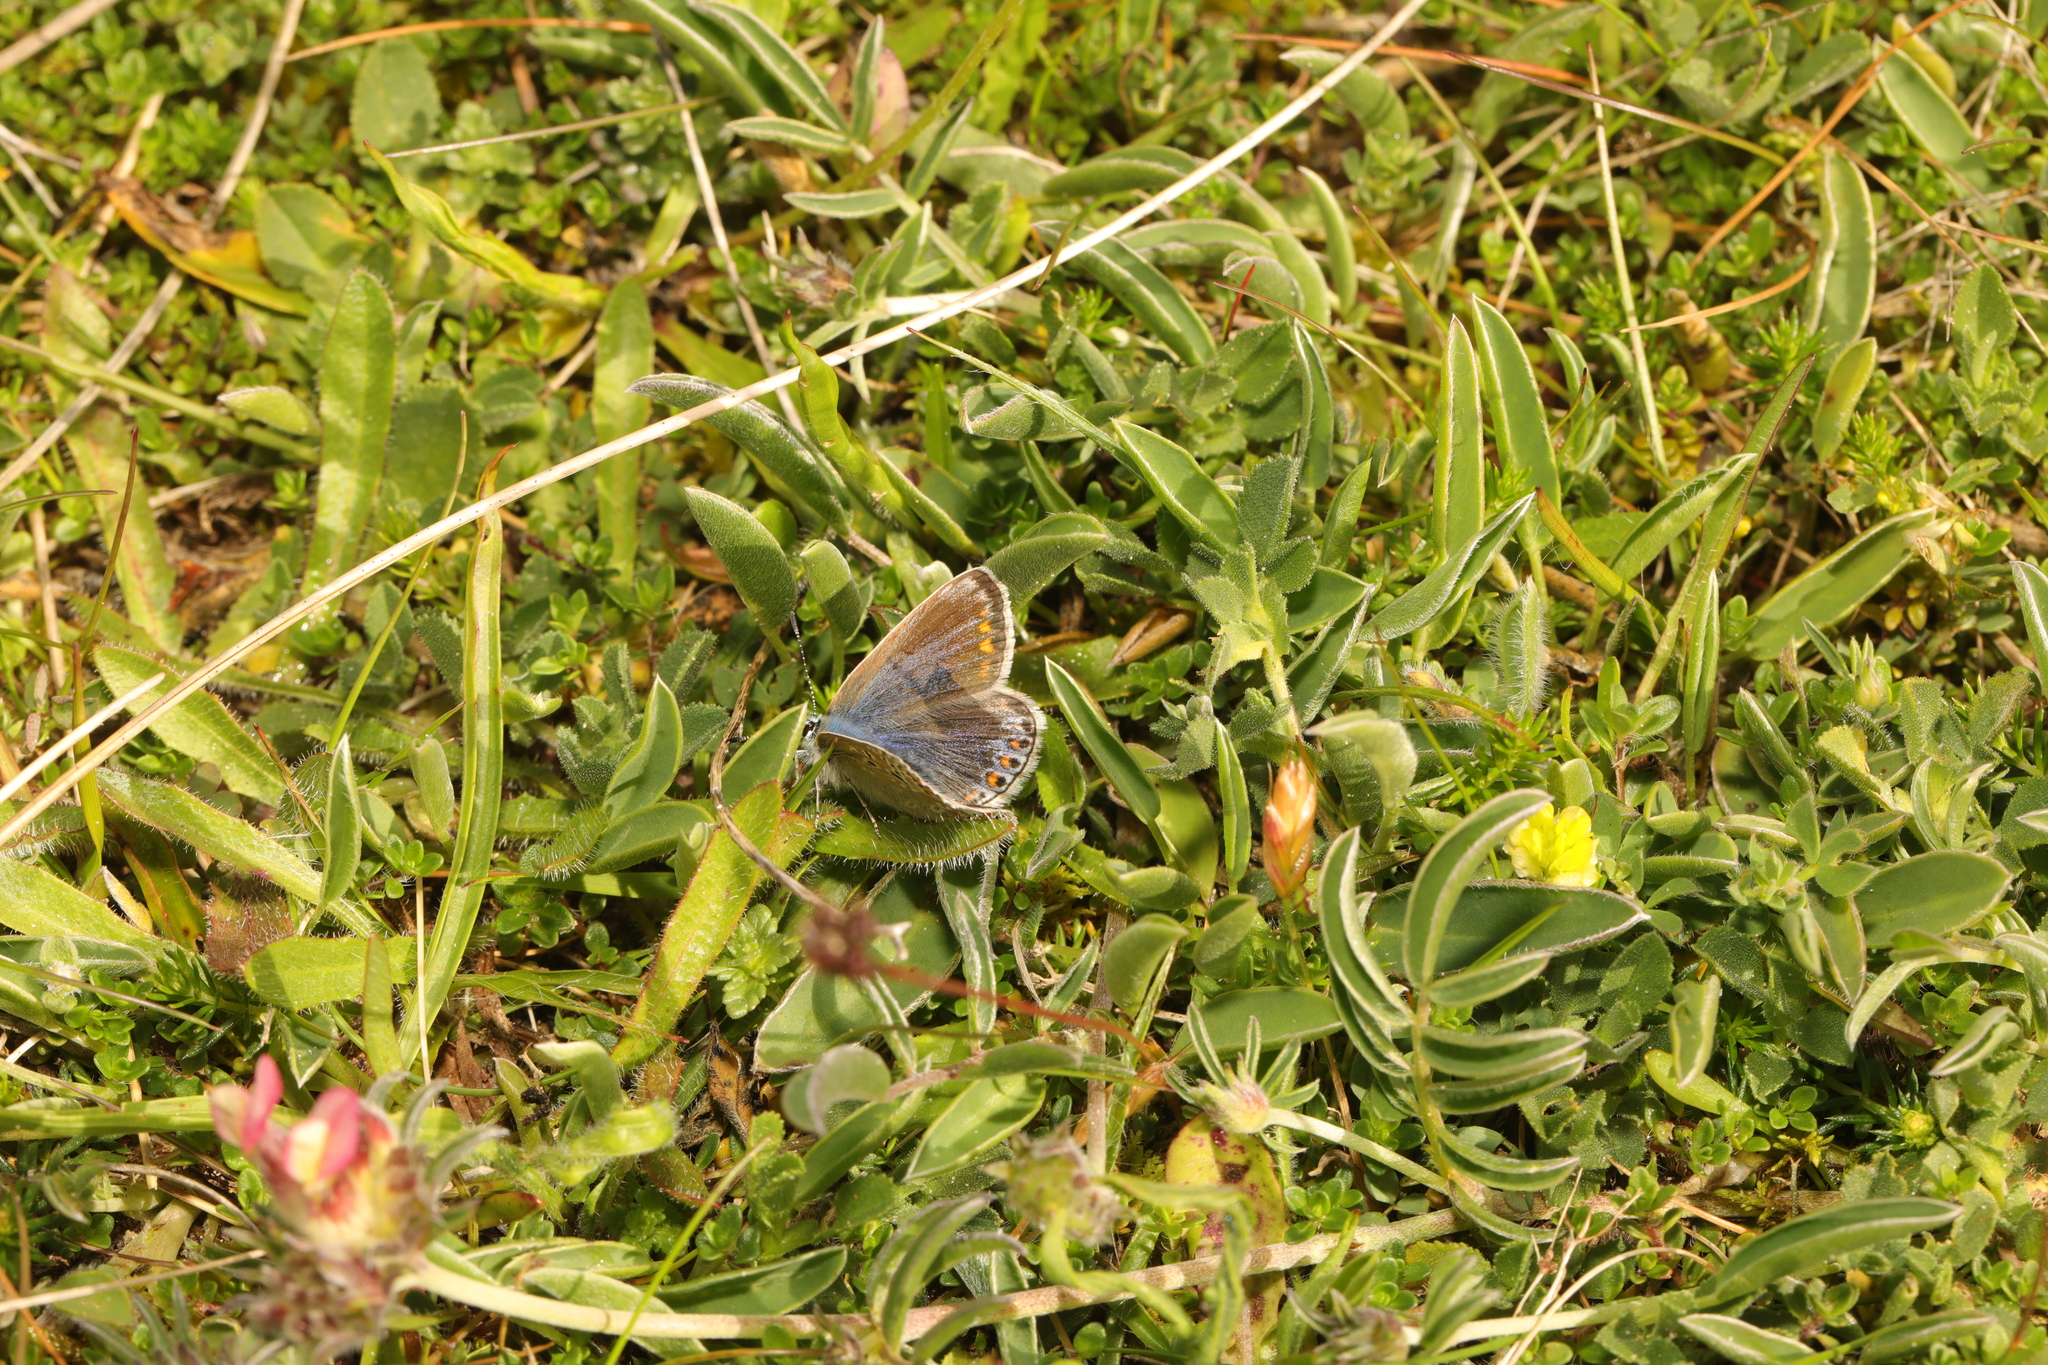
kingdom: Animalia
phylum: Arthropoda
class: Insecta
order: Lepidoptera
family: Lycaenidae
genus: Polyommatus
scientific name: Polyommatus icarus
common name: Common blue
